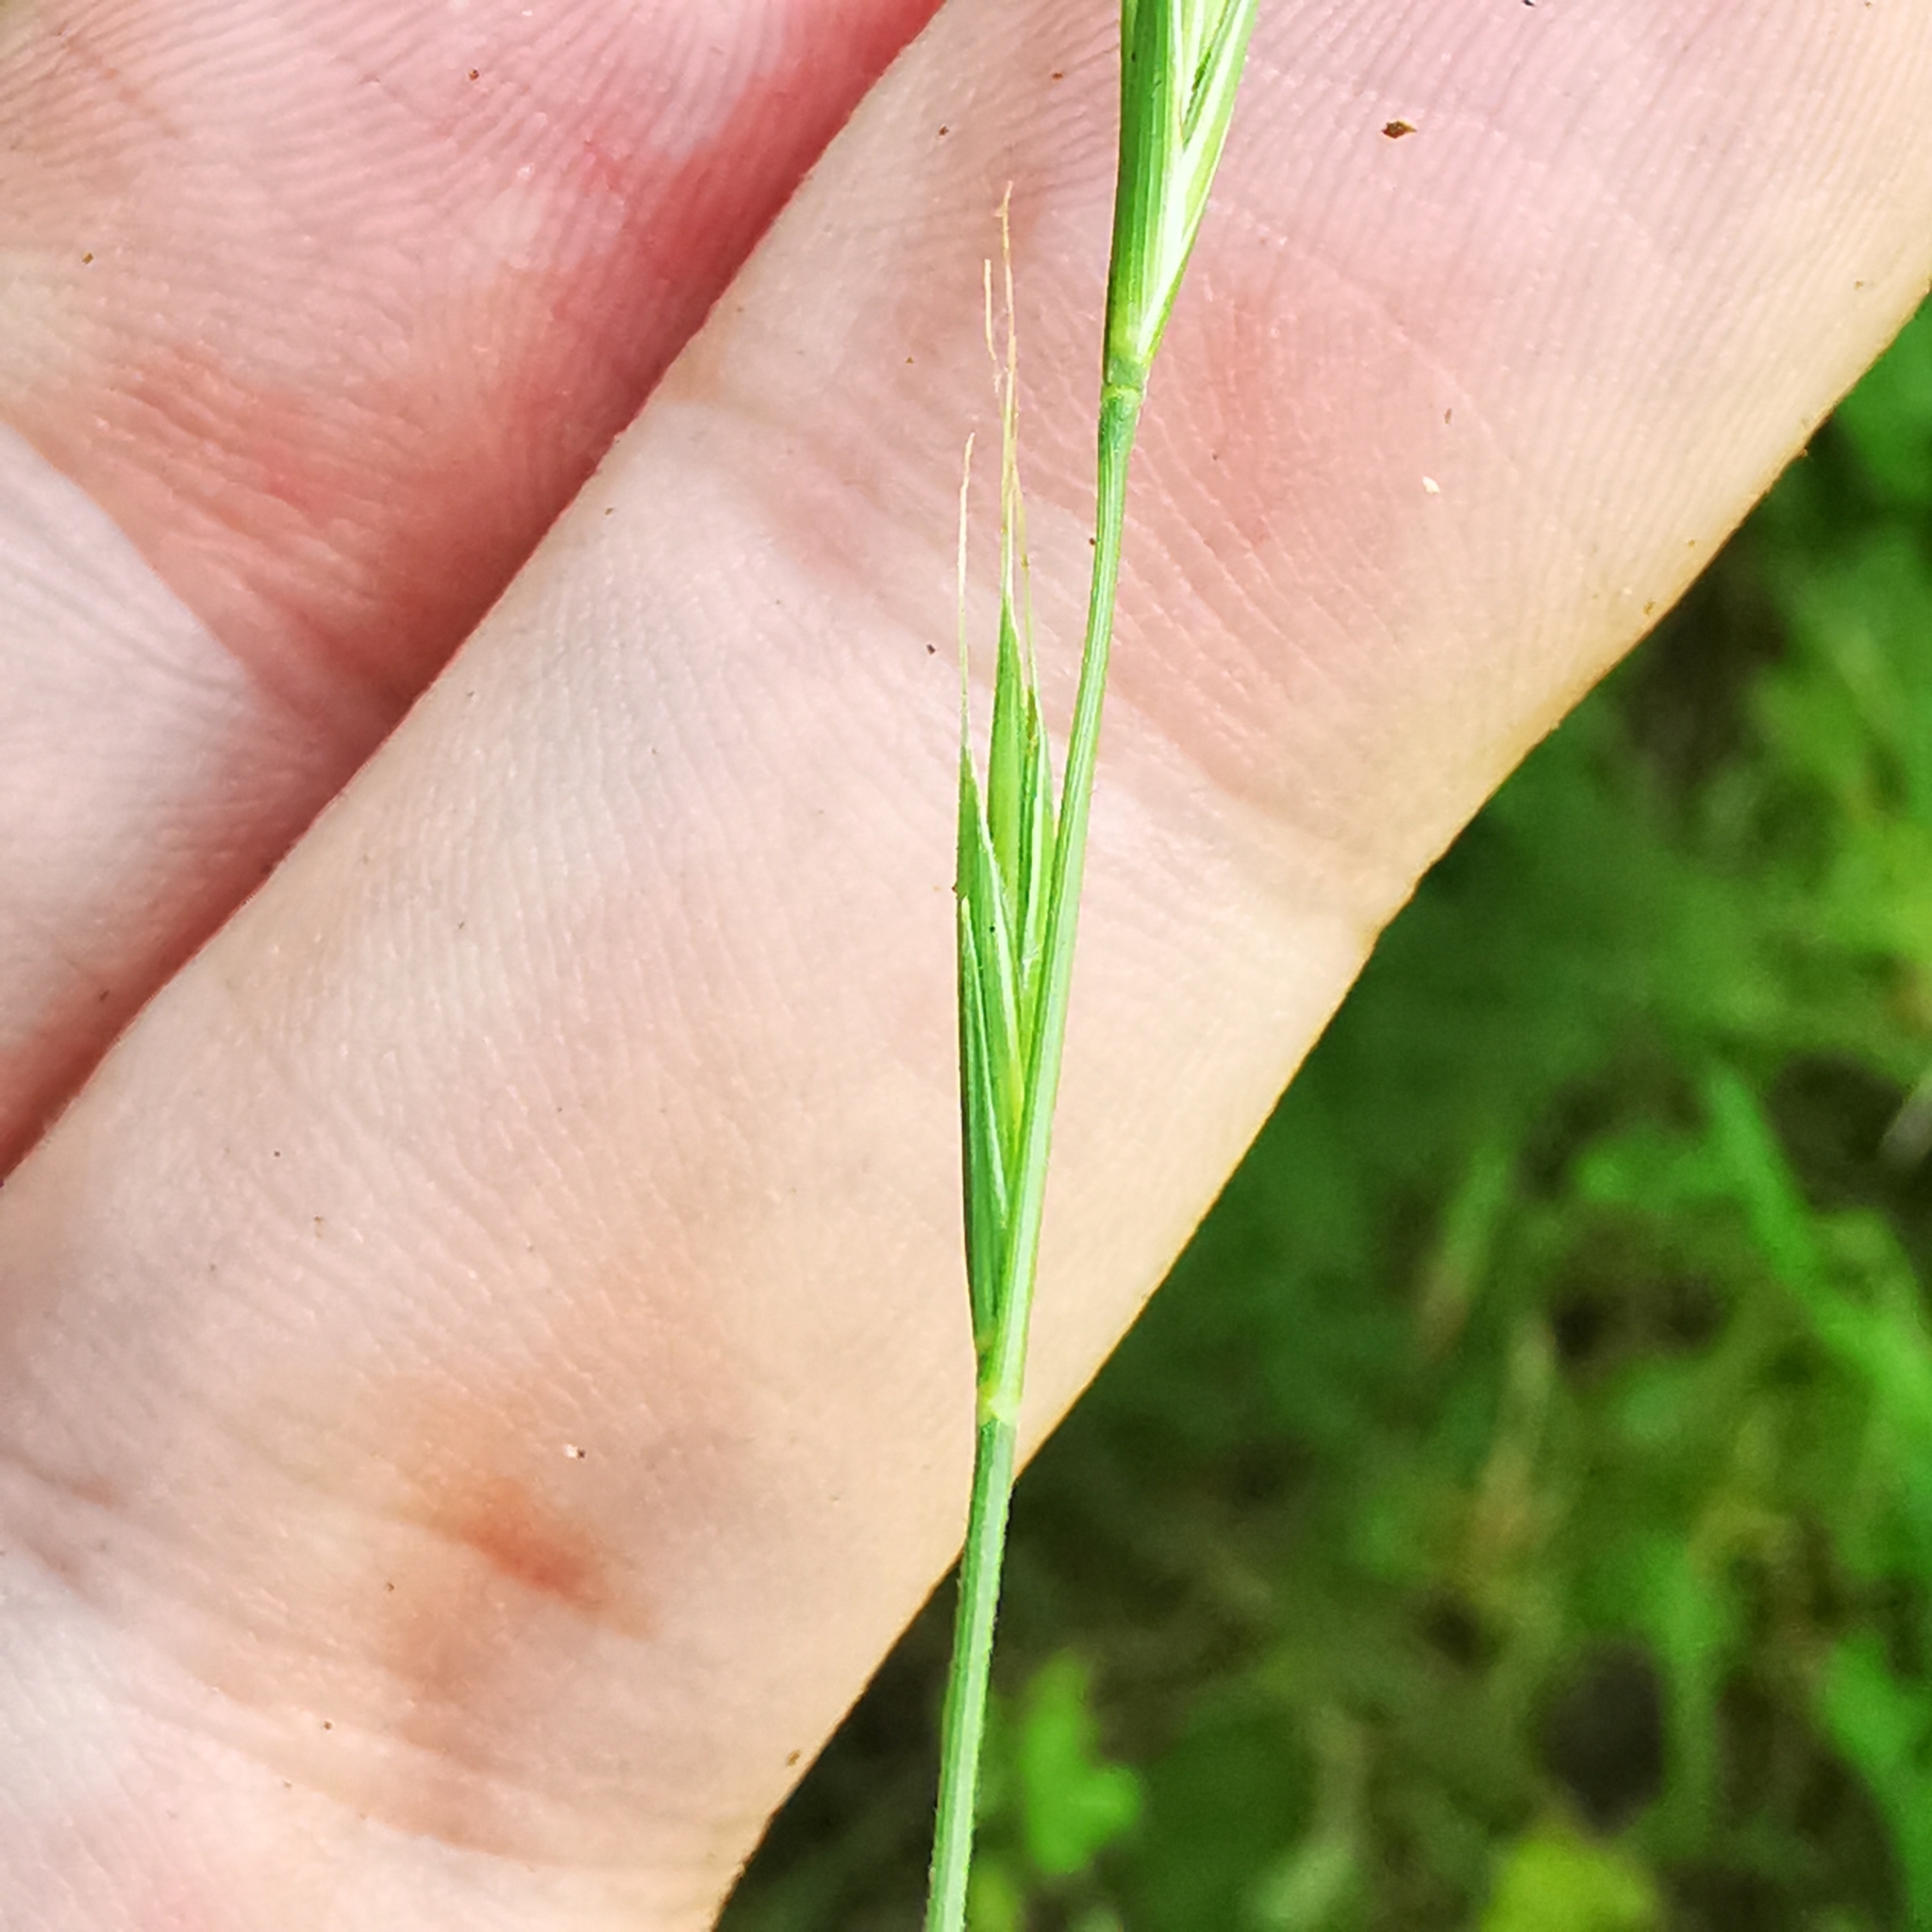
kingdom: Plantae
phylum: Tracheophyta
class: Liliopsida
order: Poales
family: Poaceae
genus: Brachypodium
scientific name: Brachypodium sylvaticum
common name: False-brome
